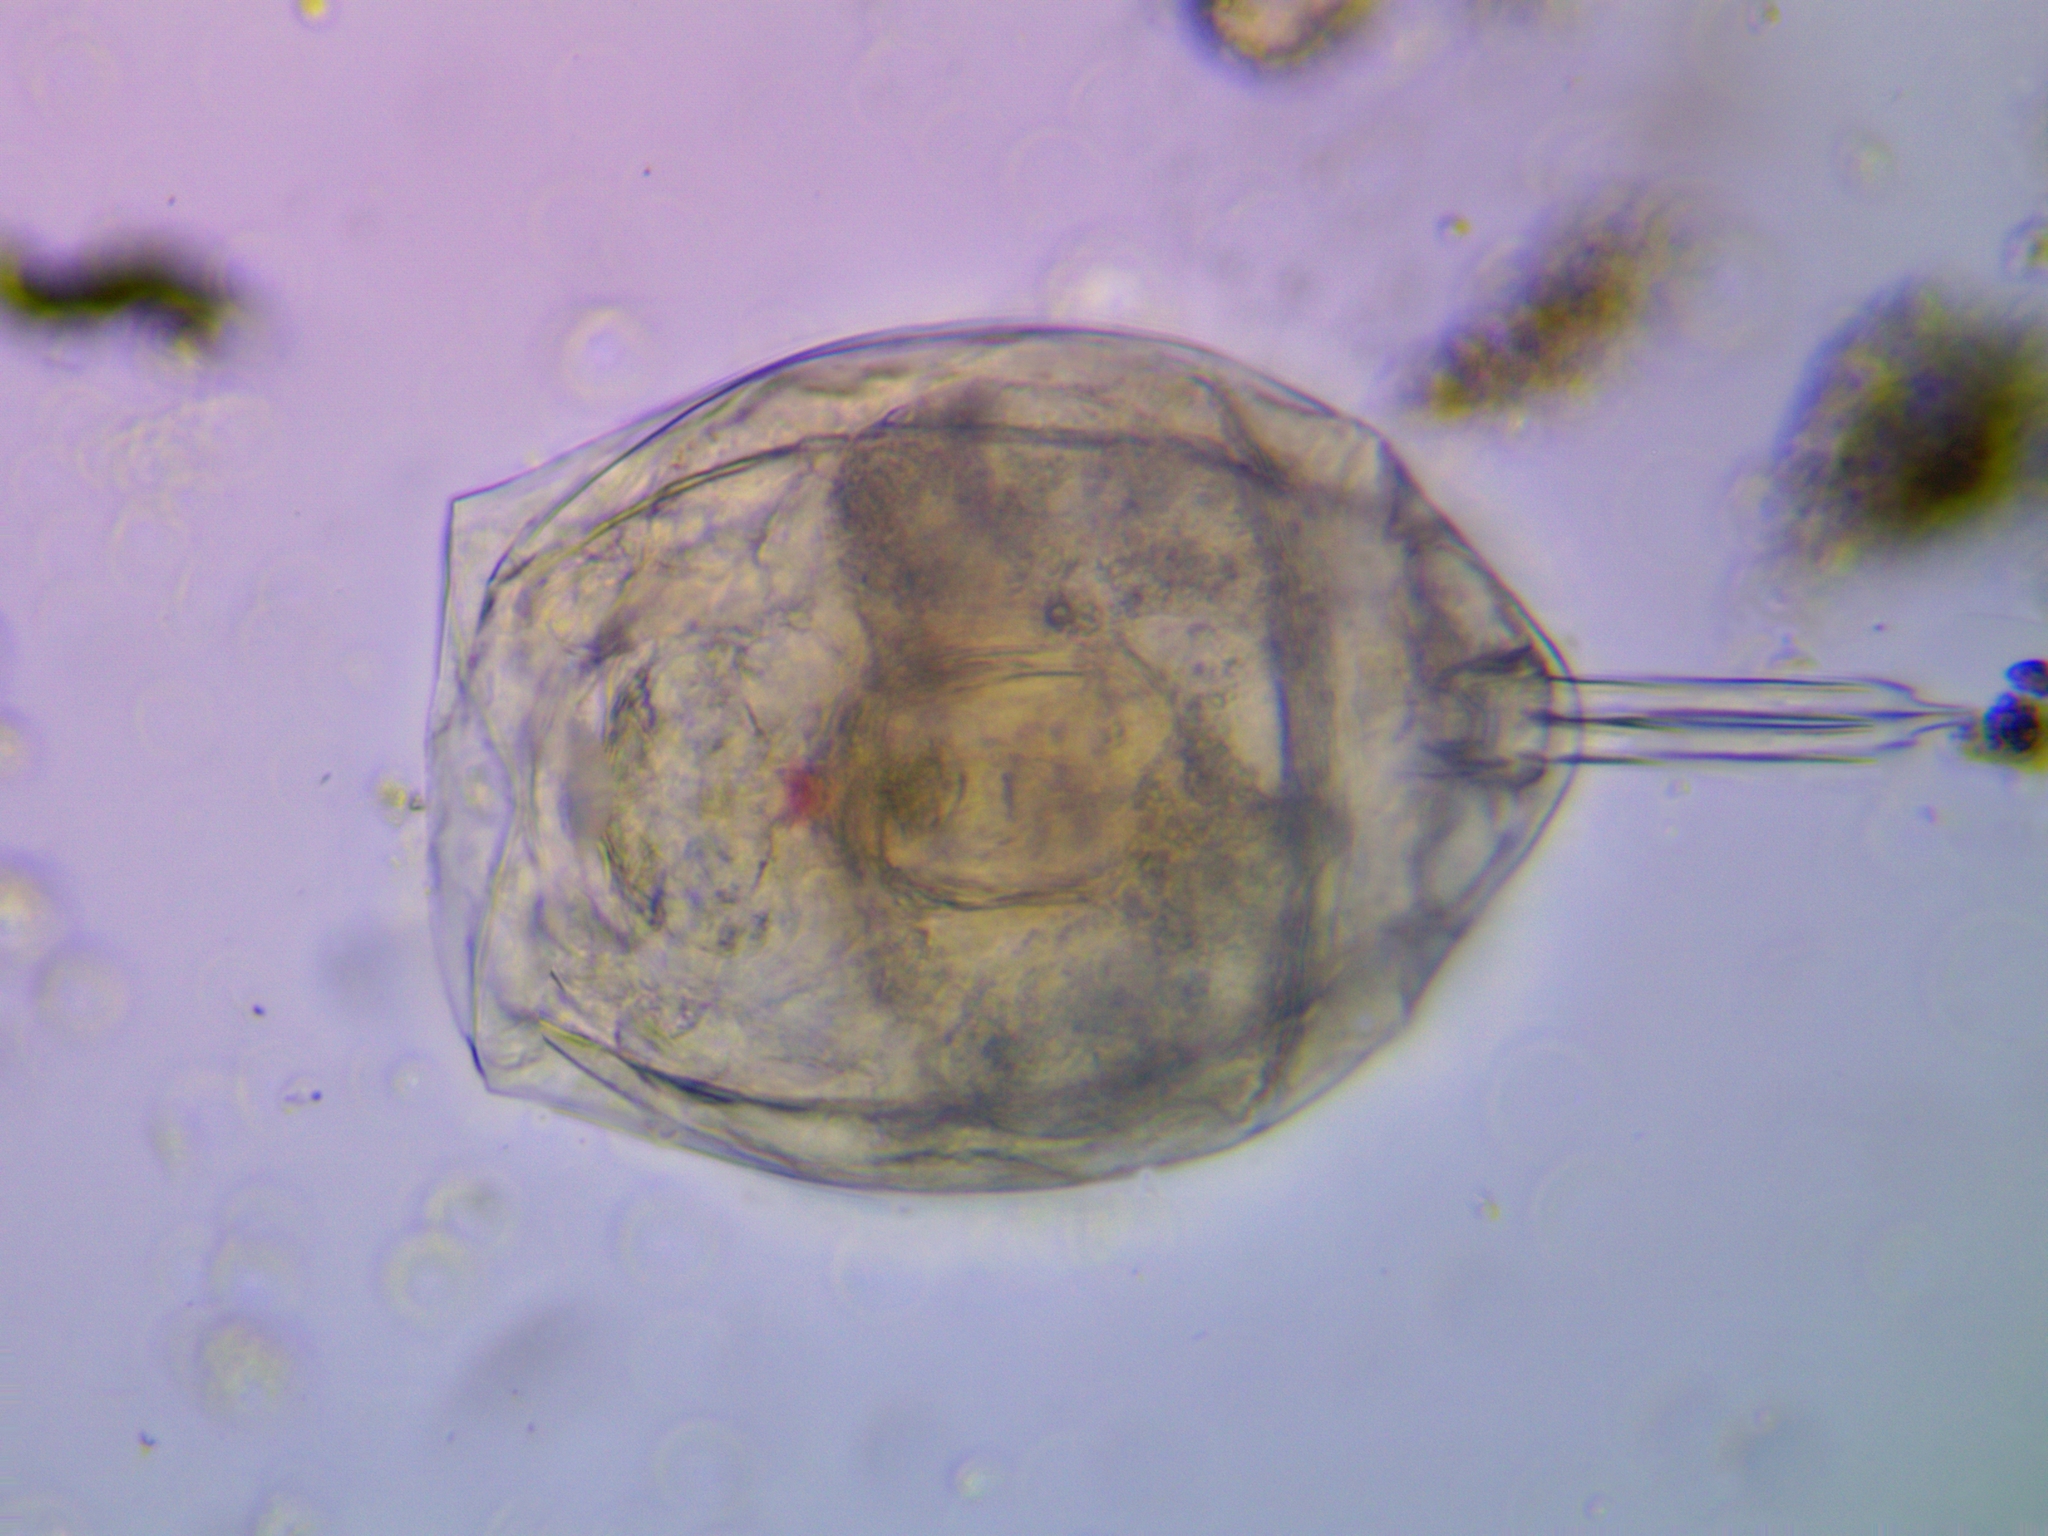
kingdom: Animalia
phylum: Rotifera
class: Eurotatoria
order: Ploima
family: Lecanidae
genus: Lecane
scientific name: Lecane elsa
